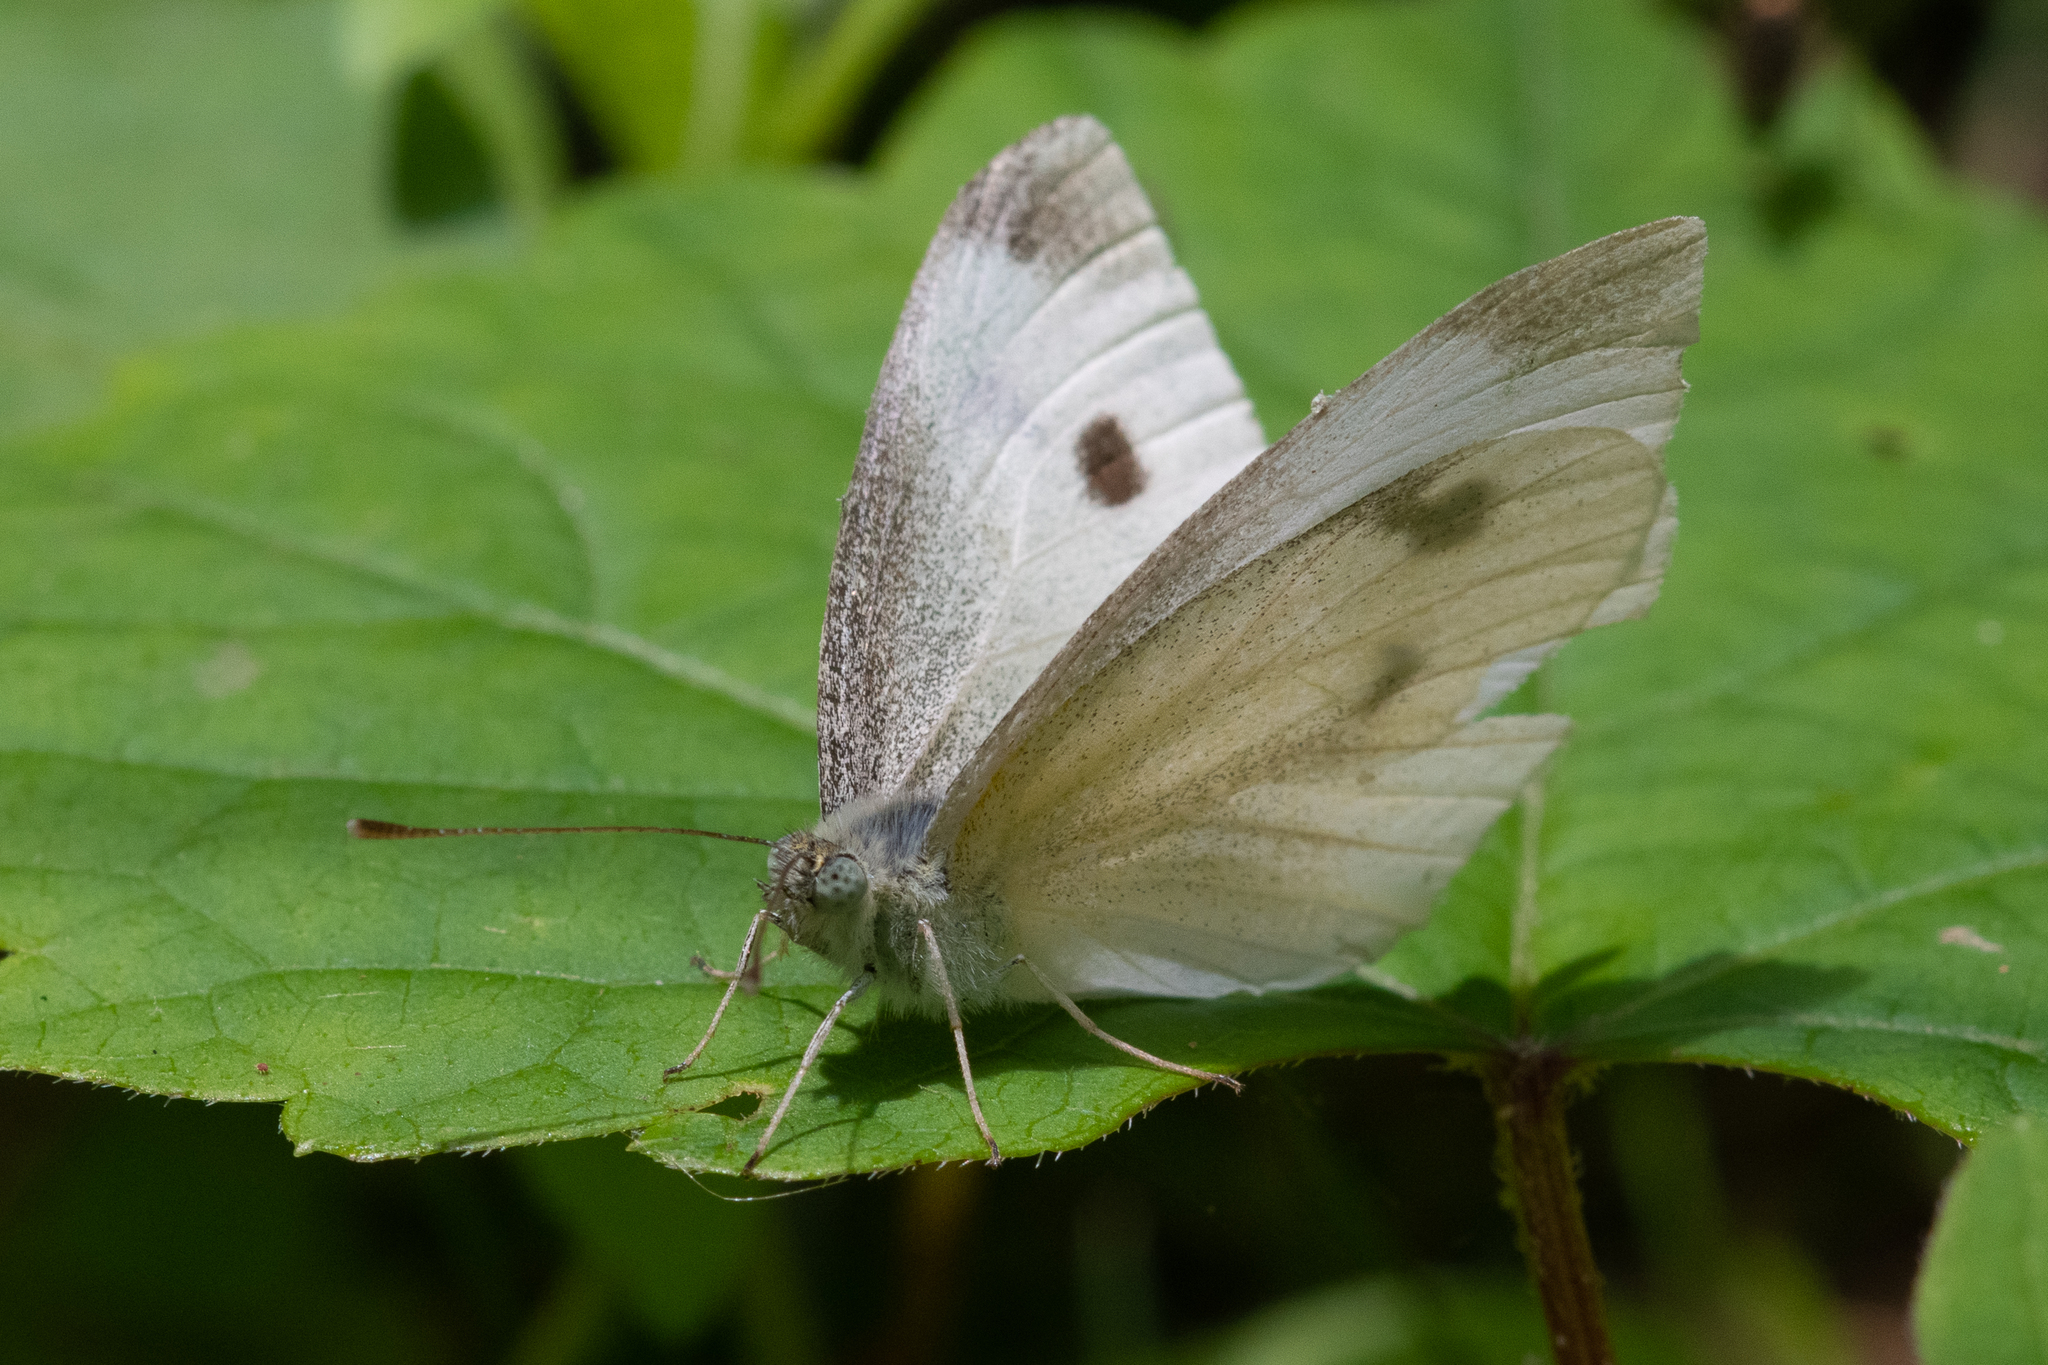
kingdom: Animalia
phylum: Arthropoda
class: Insecta
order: Lepidoptera
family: Pieridae
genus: Pieris
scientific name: Pieris rapae
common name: Small white
